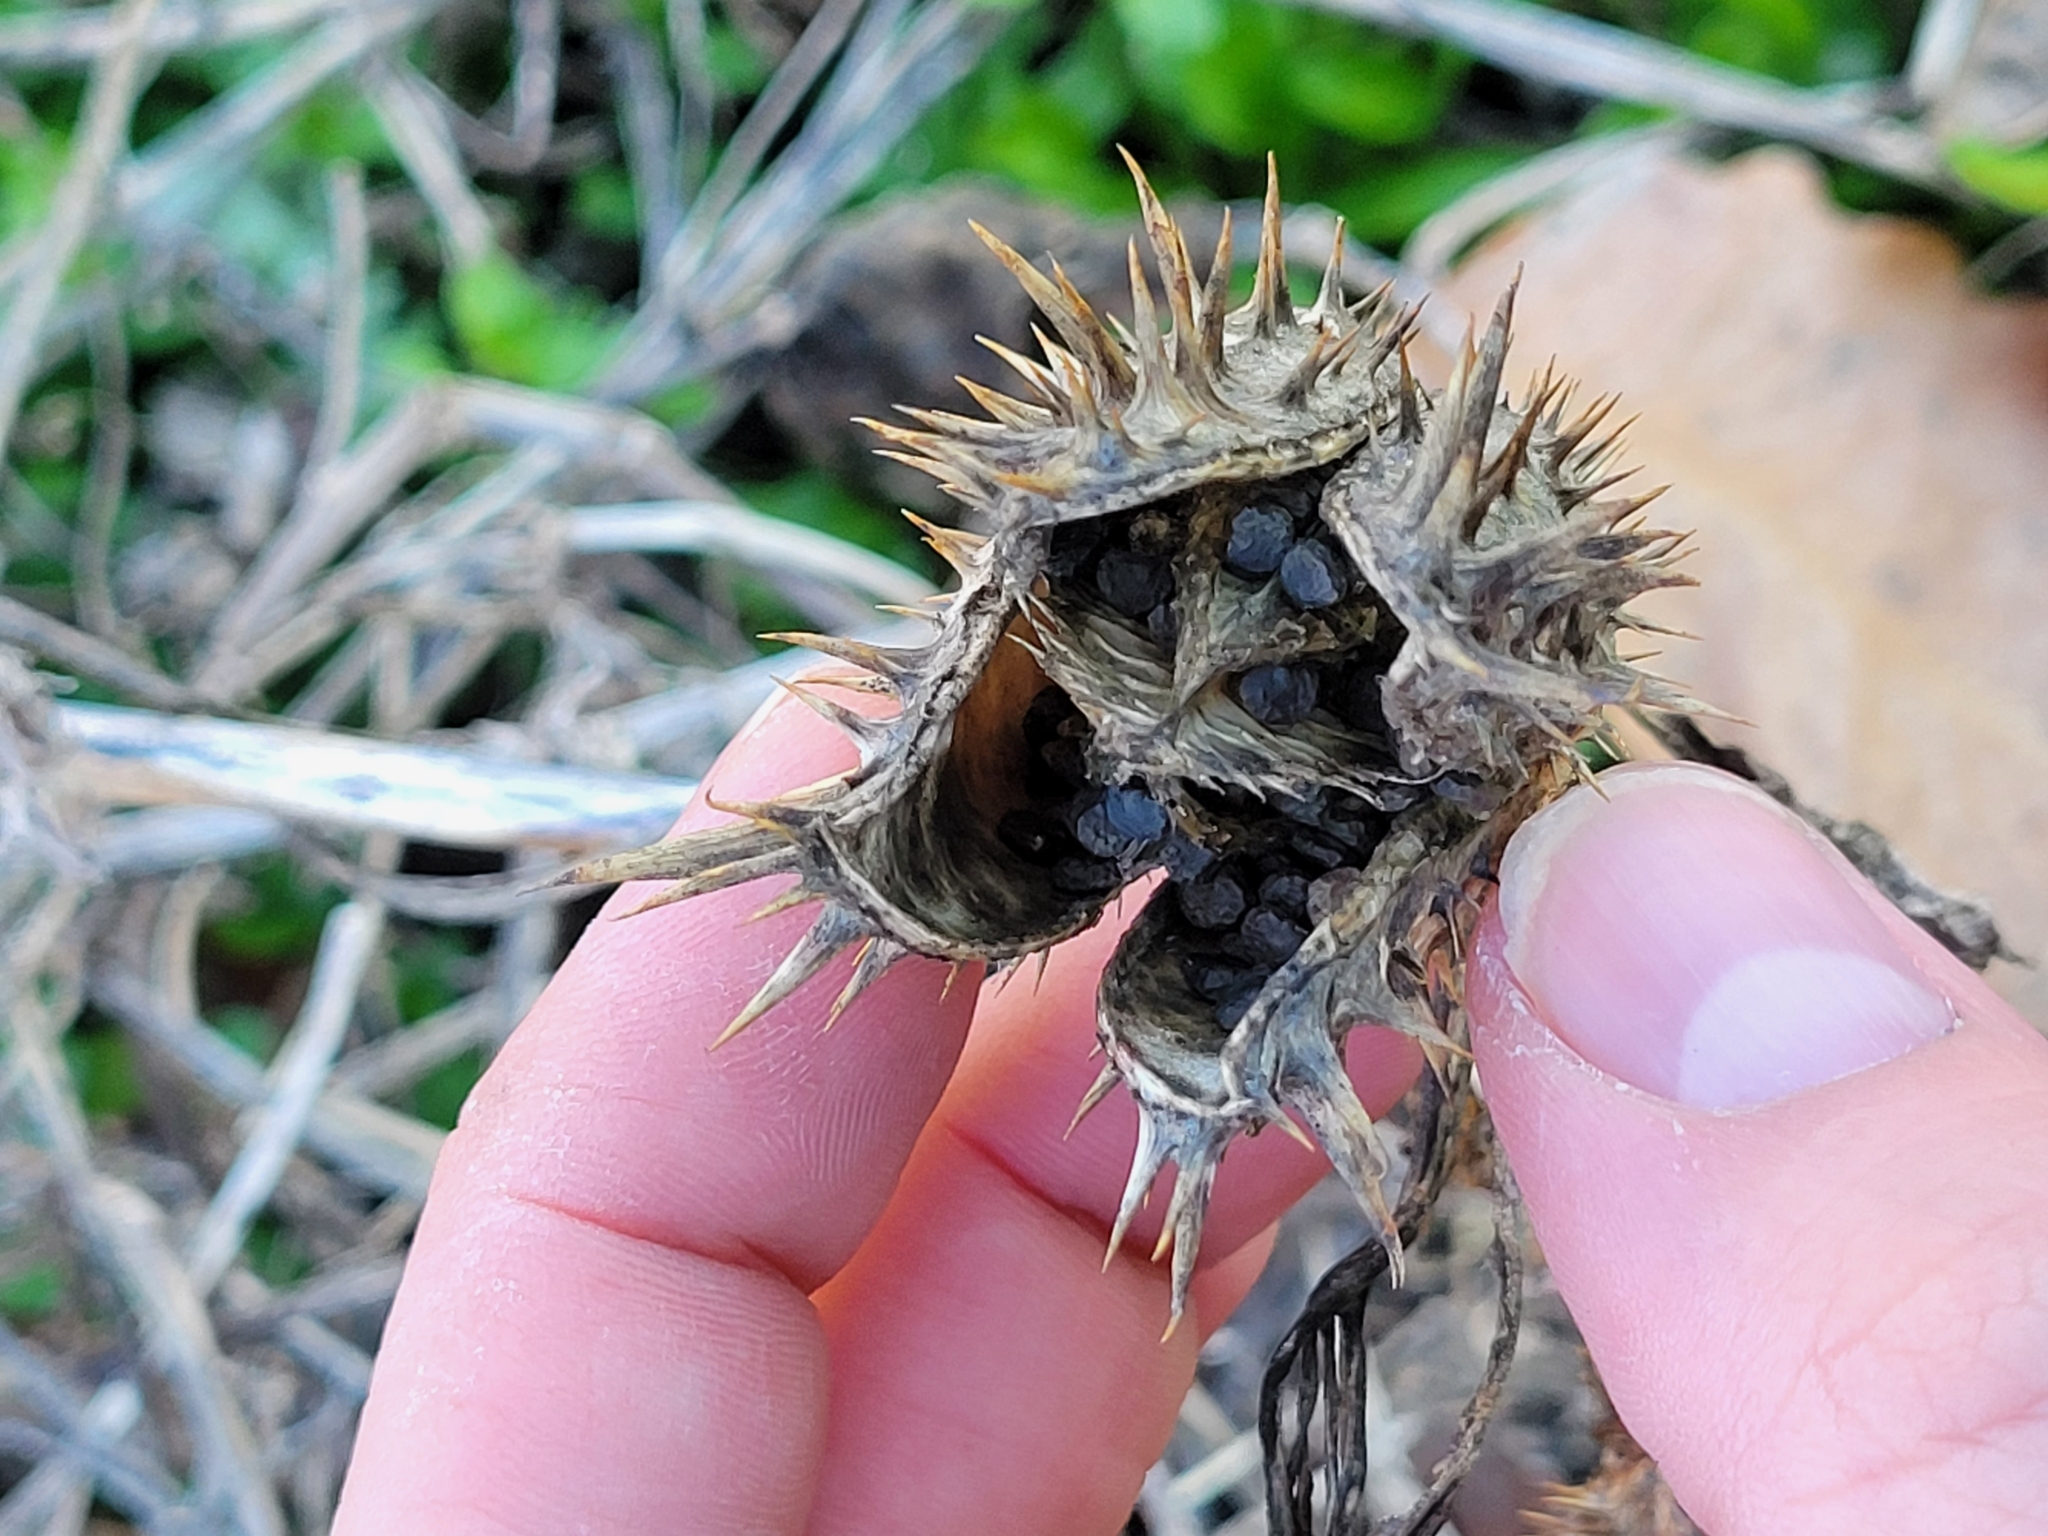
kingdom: Plantae
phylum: Tracheophyta
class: Magnoliopsida
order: Solanales
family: Solanaceae
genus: Datura
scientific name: Datura stramonium
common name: Thorn-apple
